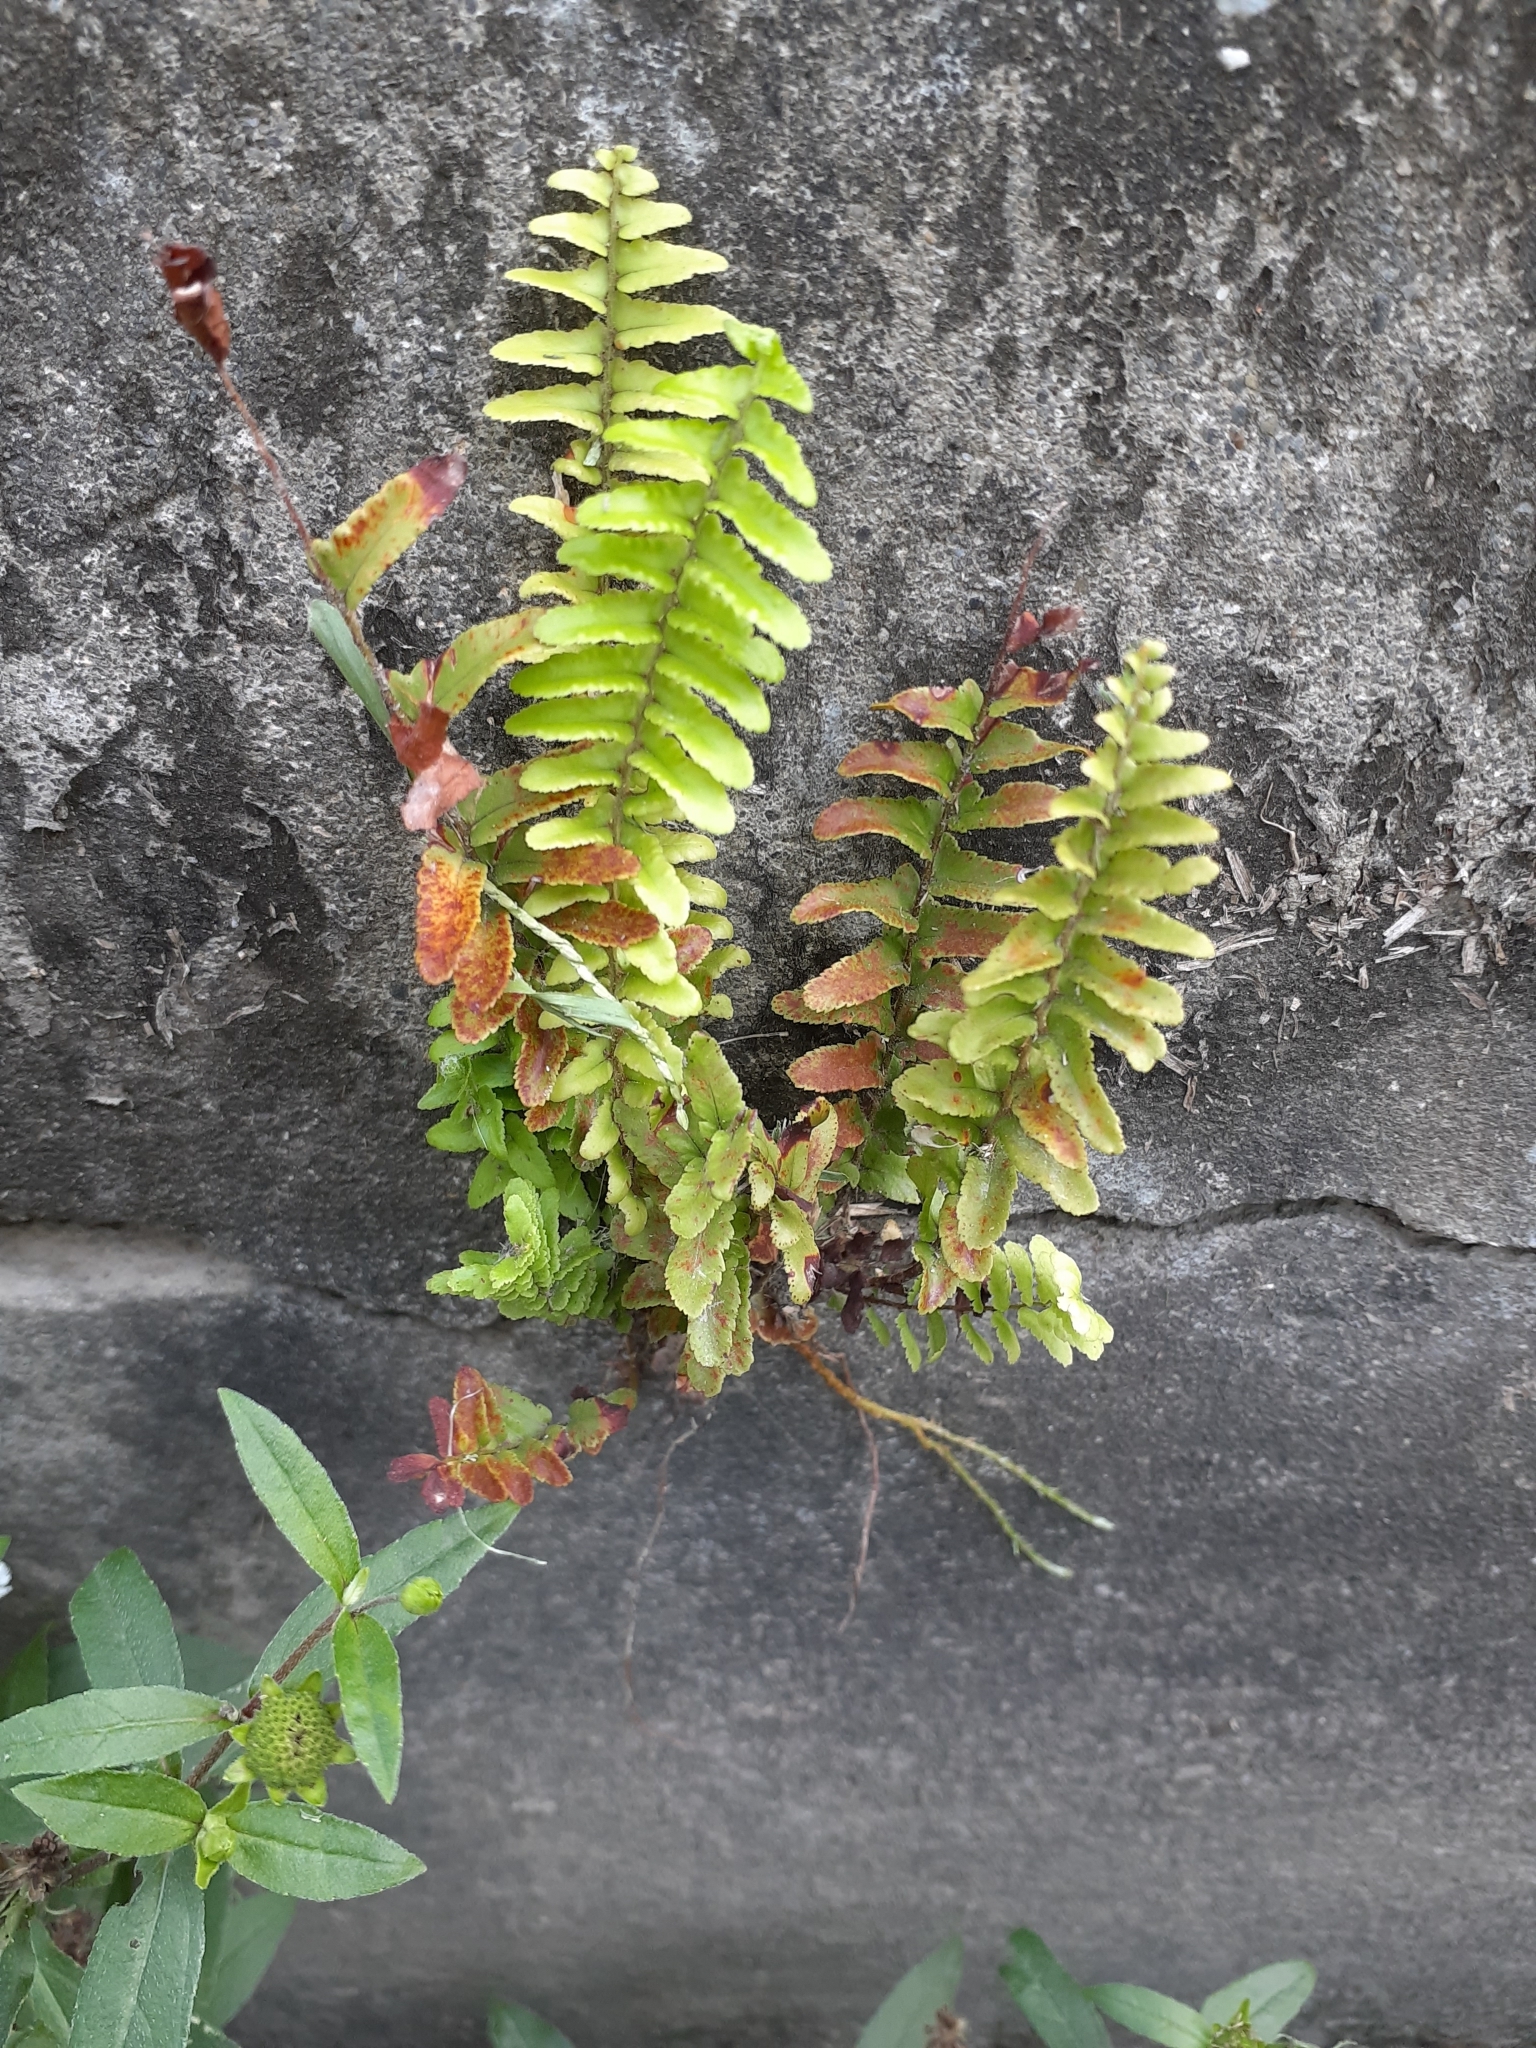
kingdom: Plantae
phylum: Tracheophyta
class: Polypodiopsida
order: Polypodiales
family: Nephrolepidaceae
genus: Nephrolepis
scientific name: Nephrolepis cordifolia
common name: Narrow swordfern
